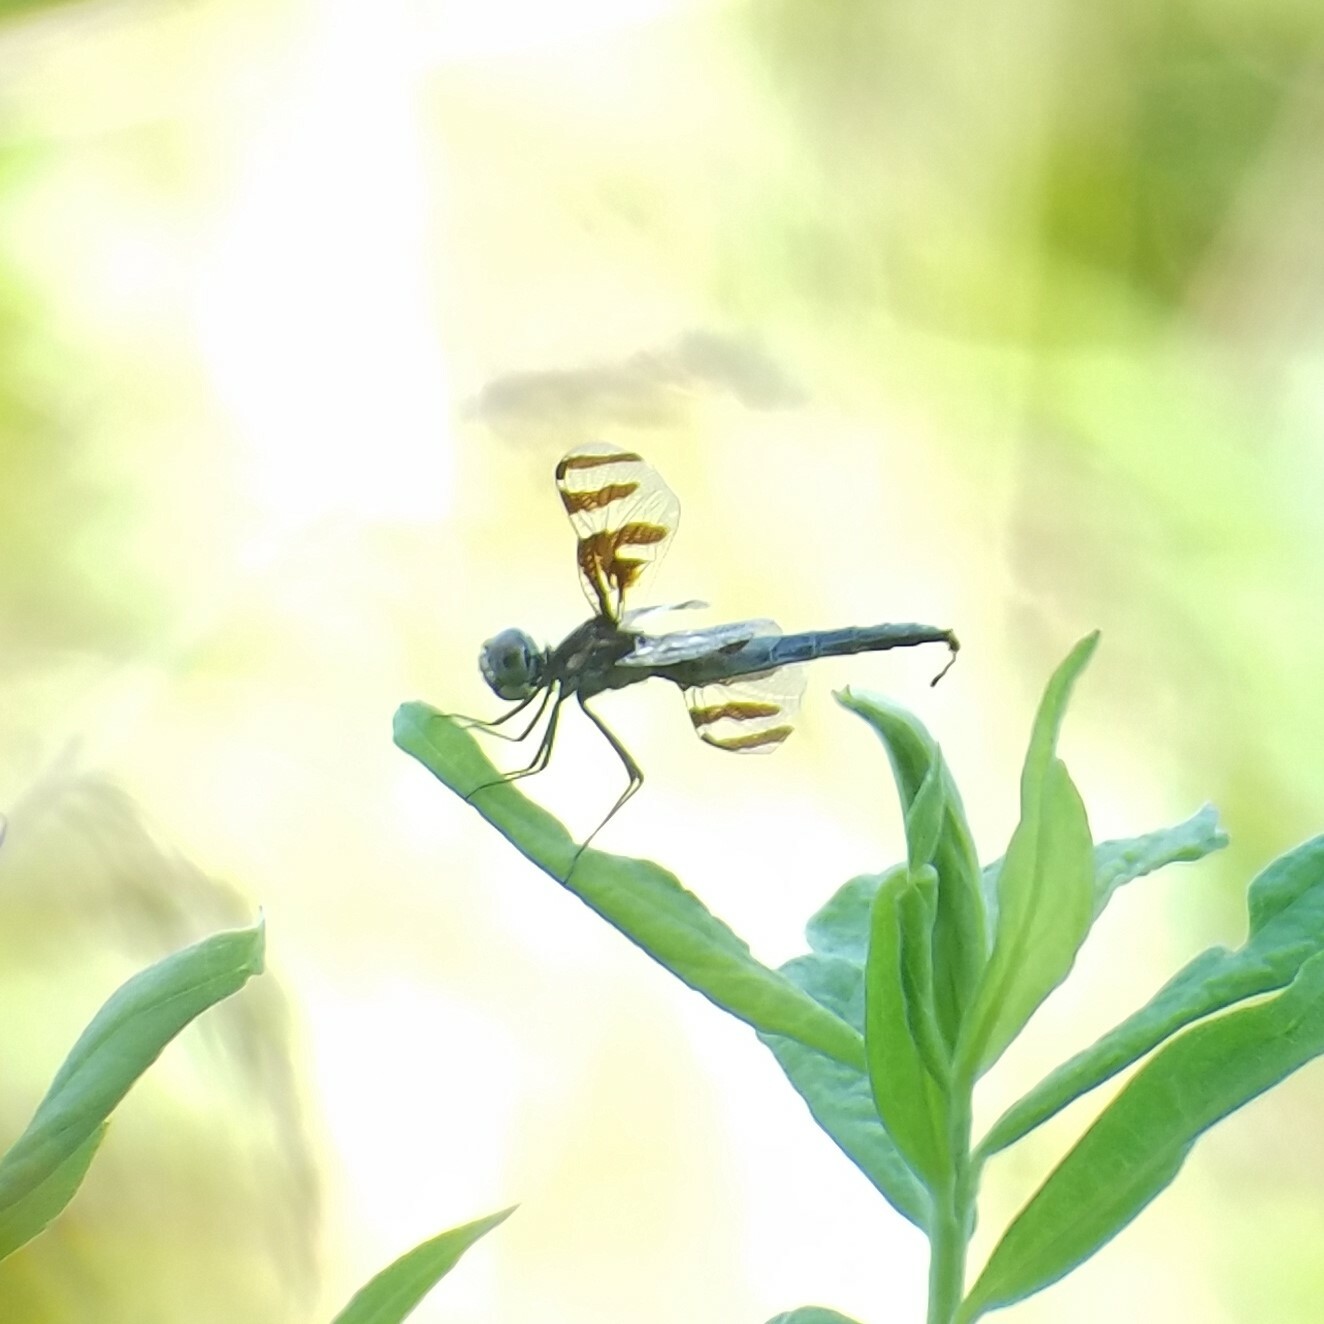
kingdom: Animalia
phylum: Arthropoda
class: Insecta
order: Odonata
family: Libellulidae
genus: Celithemis
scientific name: Celithemis fasciata
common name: Banded pennant
